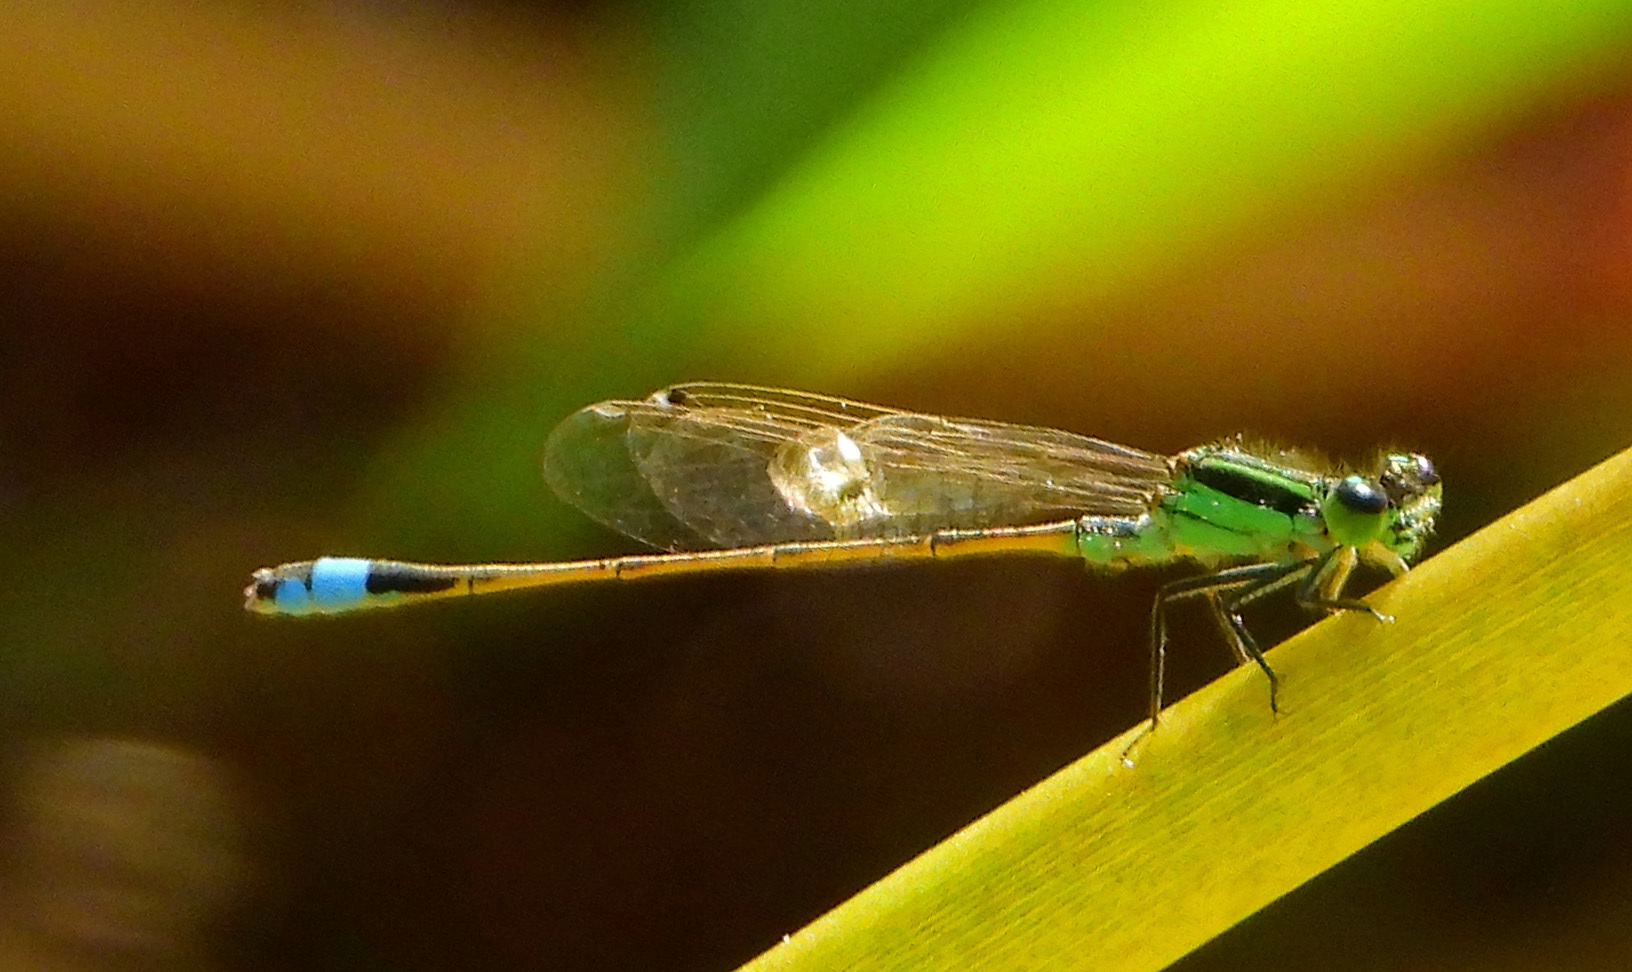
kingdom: Animalia
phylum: Arthropoda
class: Insecta
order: Odonata
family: Coenagrionidae
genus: Ischnura
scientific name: Ischnura ramburii
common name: Rambur's forktail
